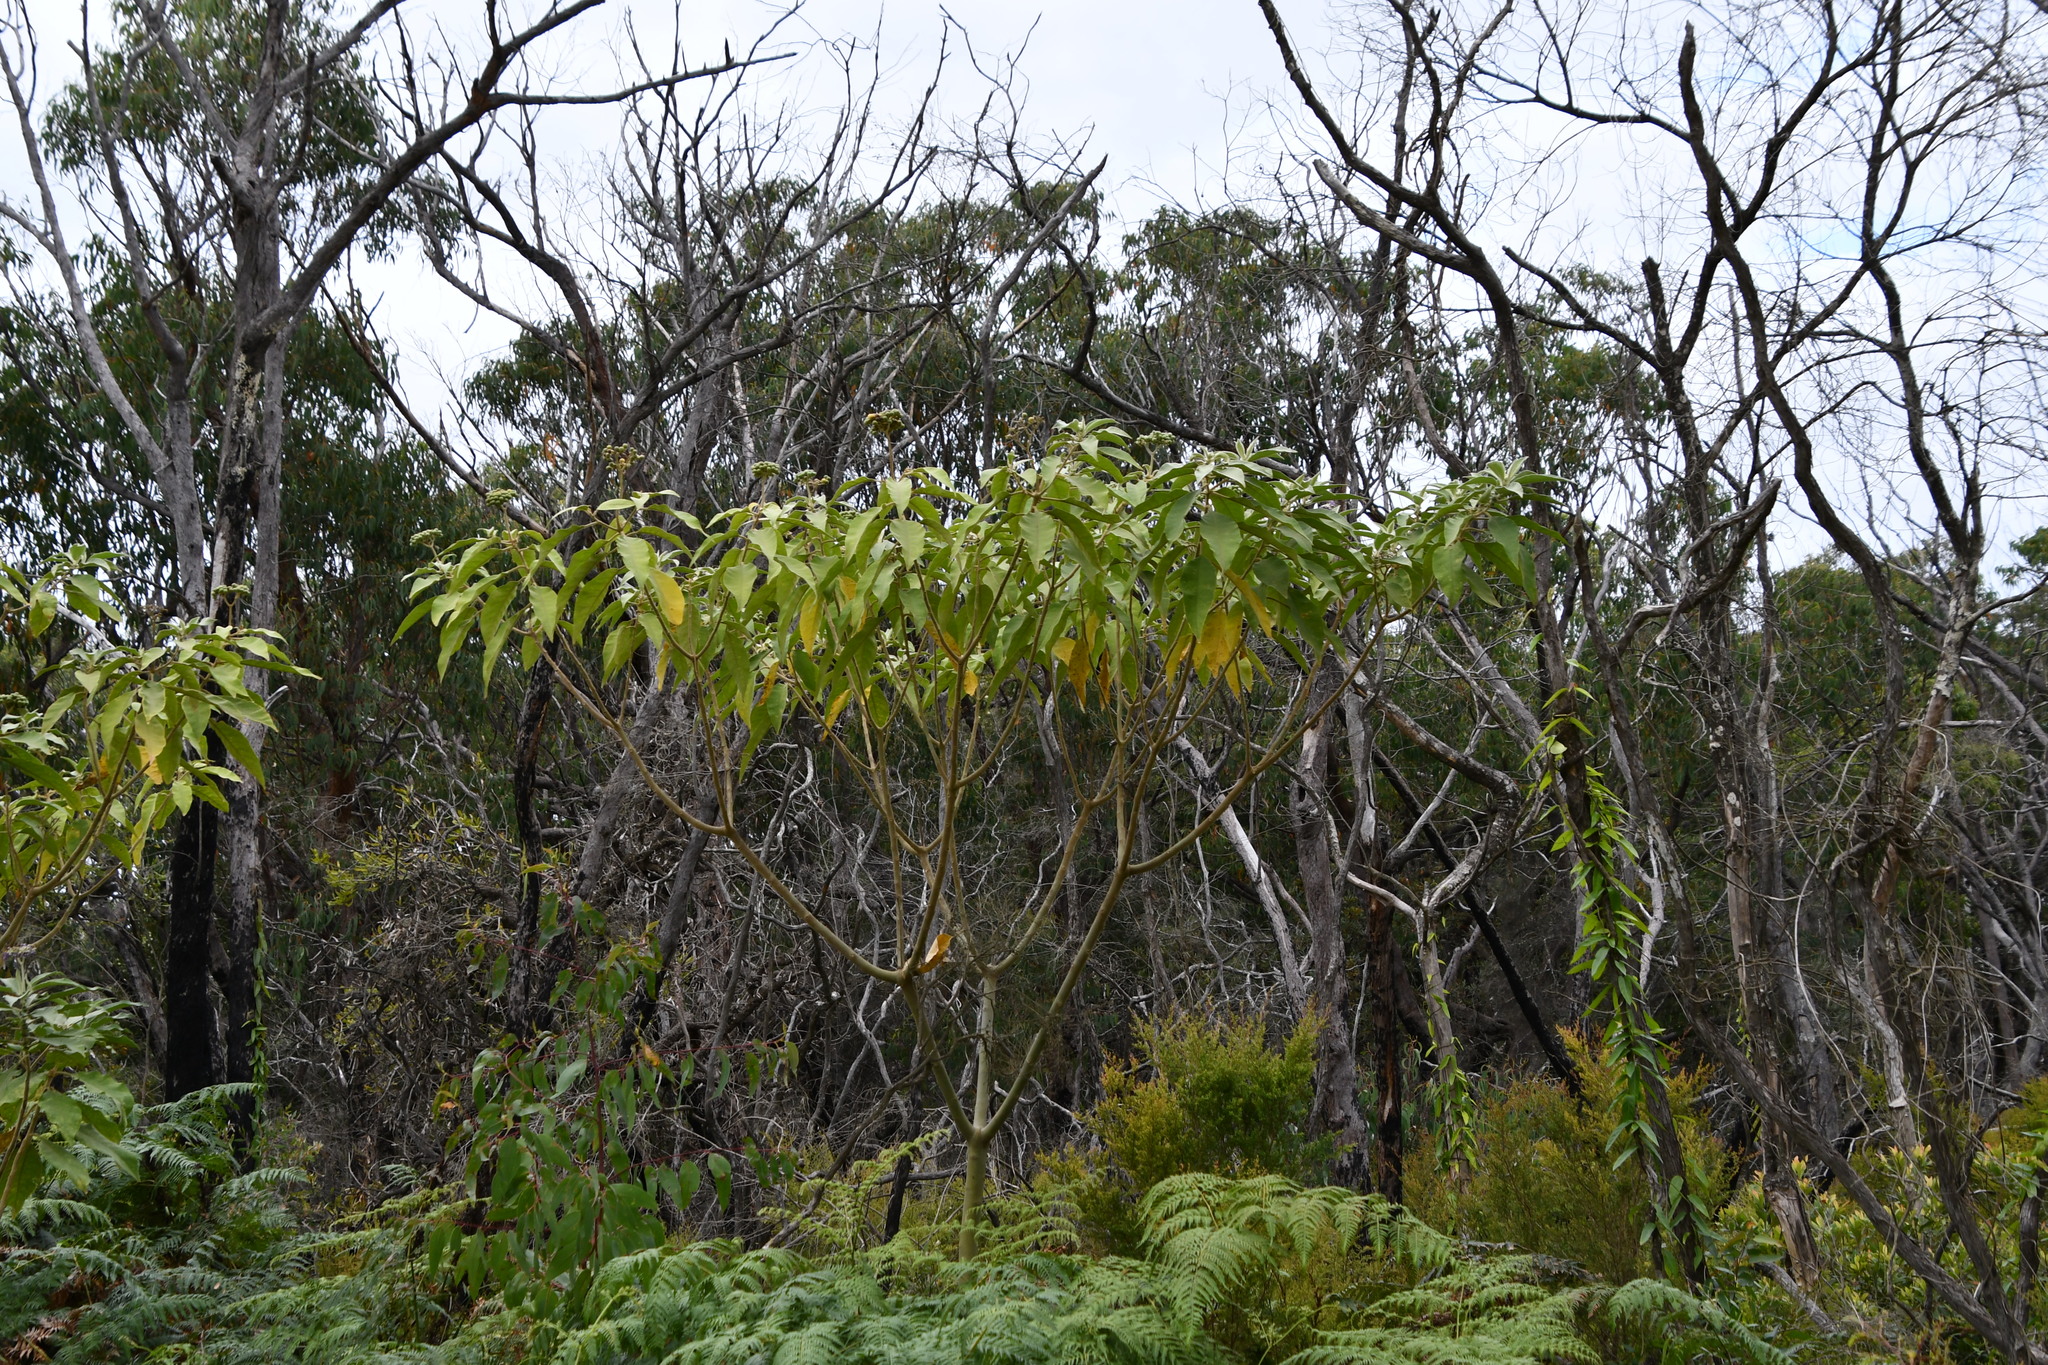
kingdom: Plantae
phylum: Tracheophyta
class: Magnoliopsida
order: Solanales
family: Solanaceae
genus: Solanum
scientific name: Solanum mauritianum
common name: Earleaf nightshade
